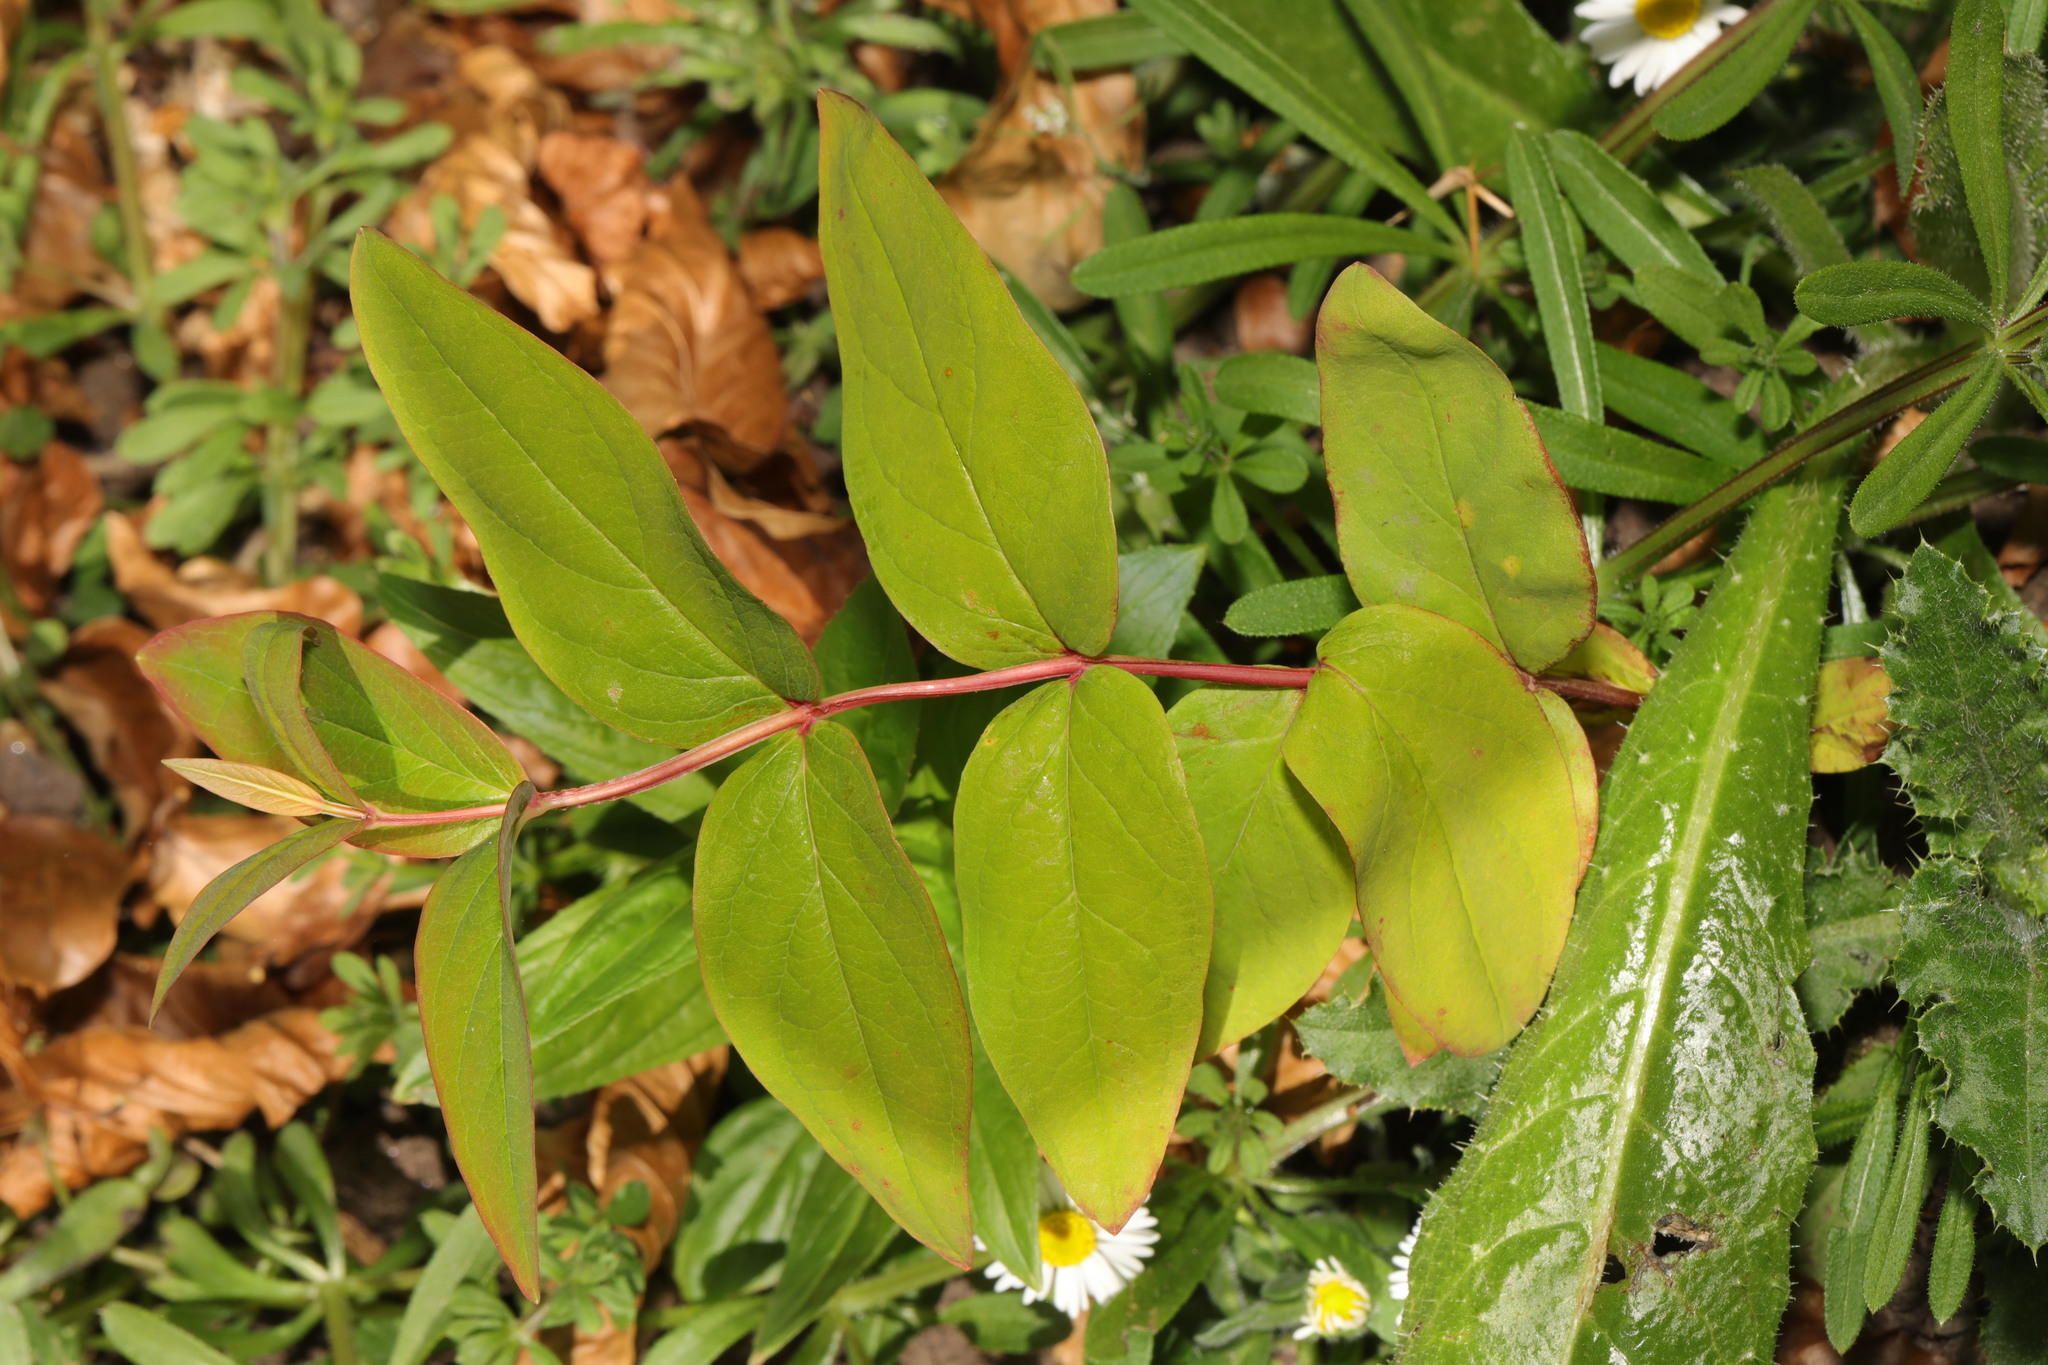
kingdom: Plantae
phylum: Tracheophyta
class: Magnoliopsida
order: Malpighiales
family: Hypericaceae
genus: Hypericum
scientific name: Hypericum androsaemum
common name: Sweet-amber
